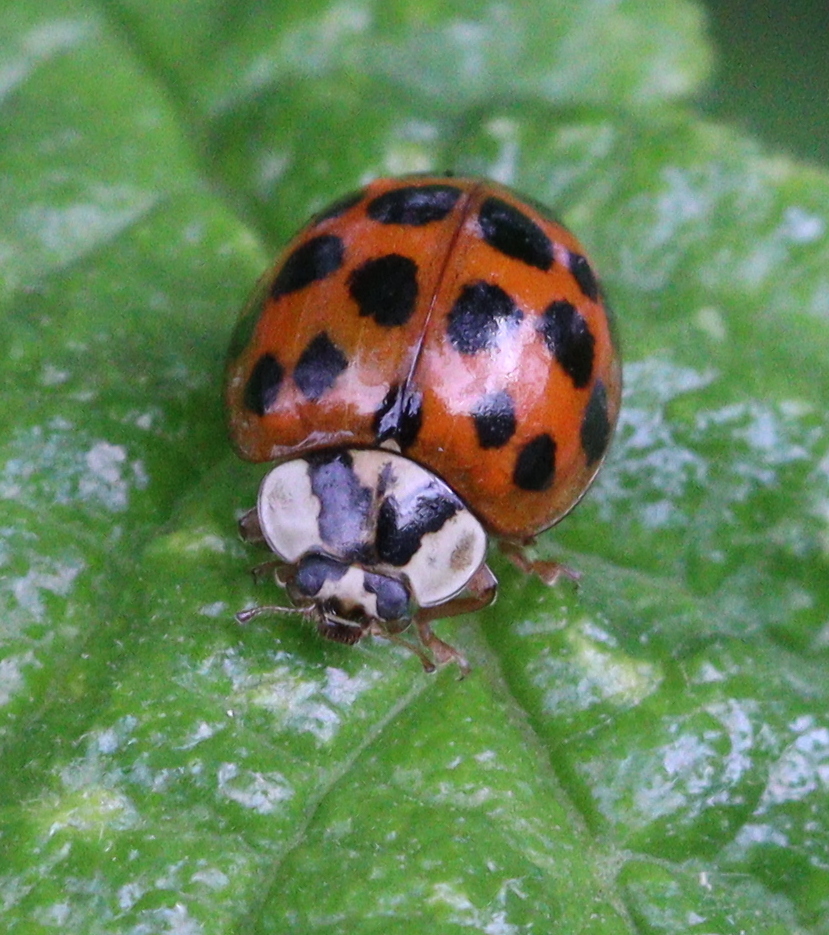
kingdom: Animalia
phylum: Arthropoda
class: Insecta
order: Coleoptera
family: Coccinellidae
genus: Harmonia
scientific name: Harmonia axyridis
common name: Harlequin ladybird
